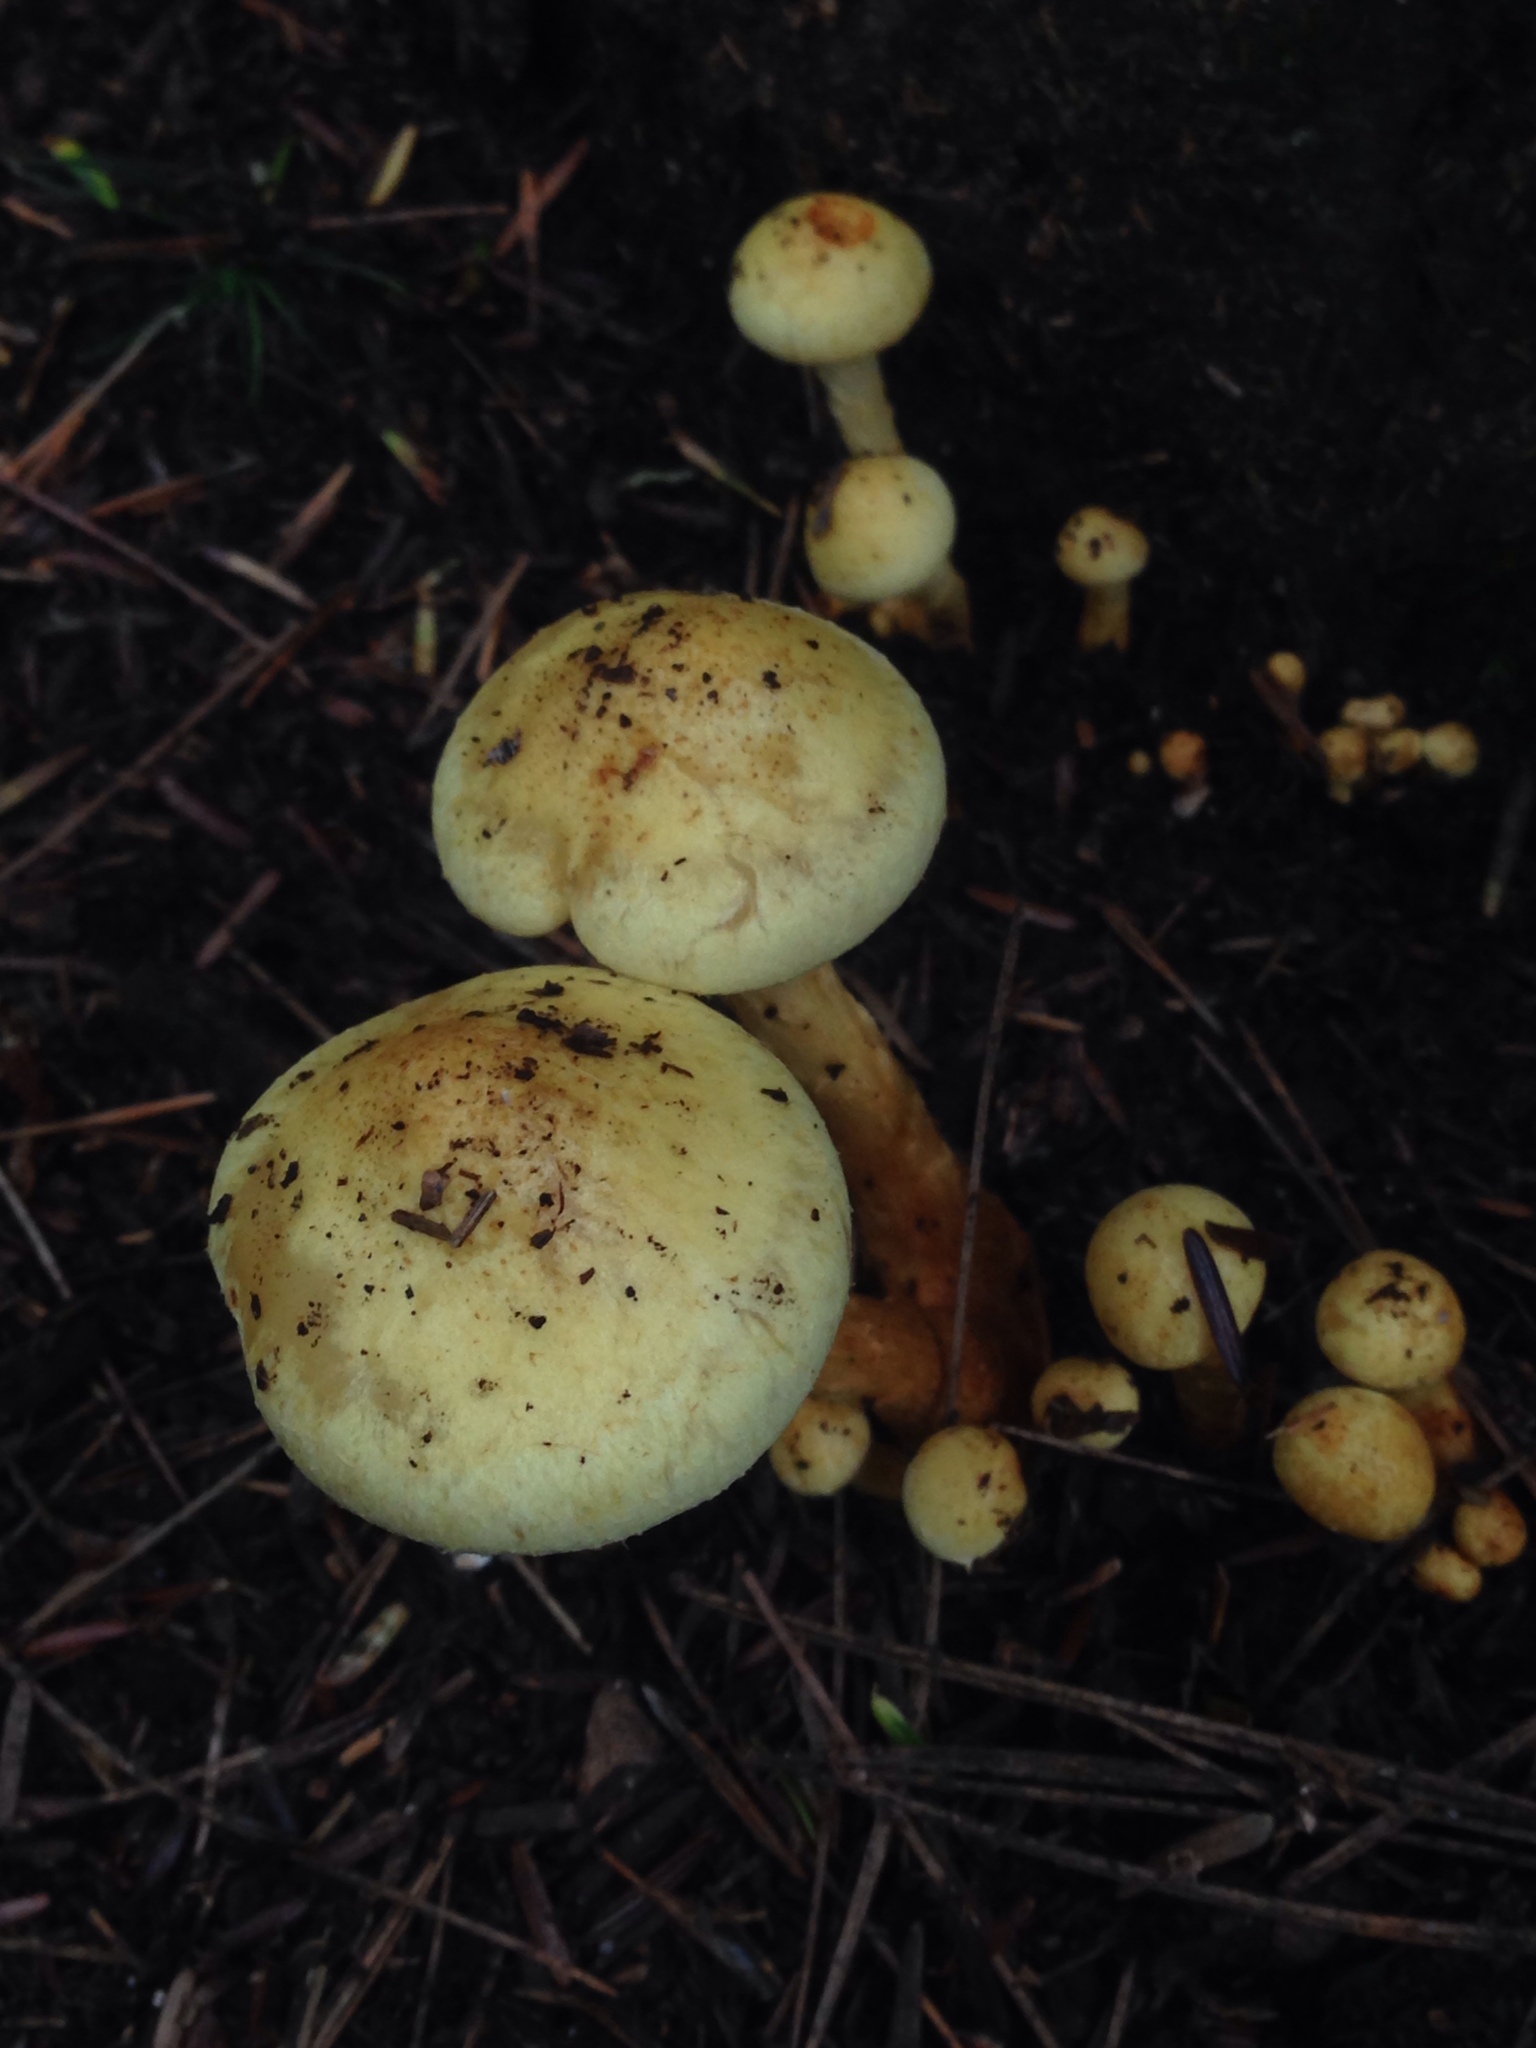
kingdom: Fungi
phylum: Basidiomycota
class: Agaricomycetes
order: Agaricales
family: Strophariaceae
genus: Hypholoma
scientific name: Hypholoma fasciculare
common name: Sulphur tuft
